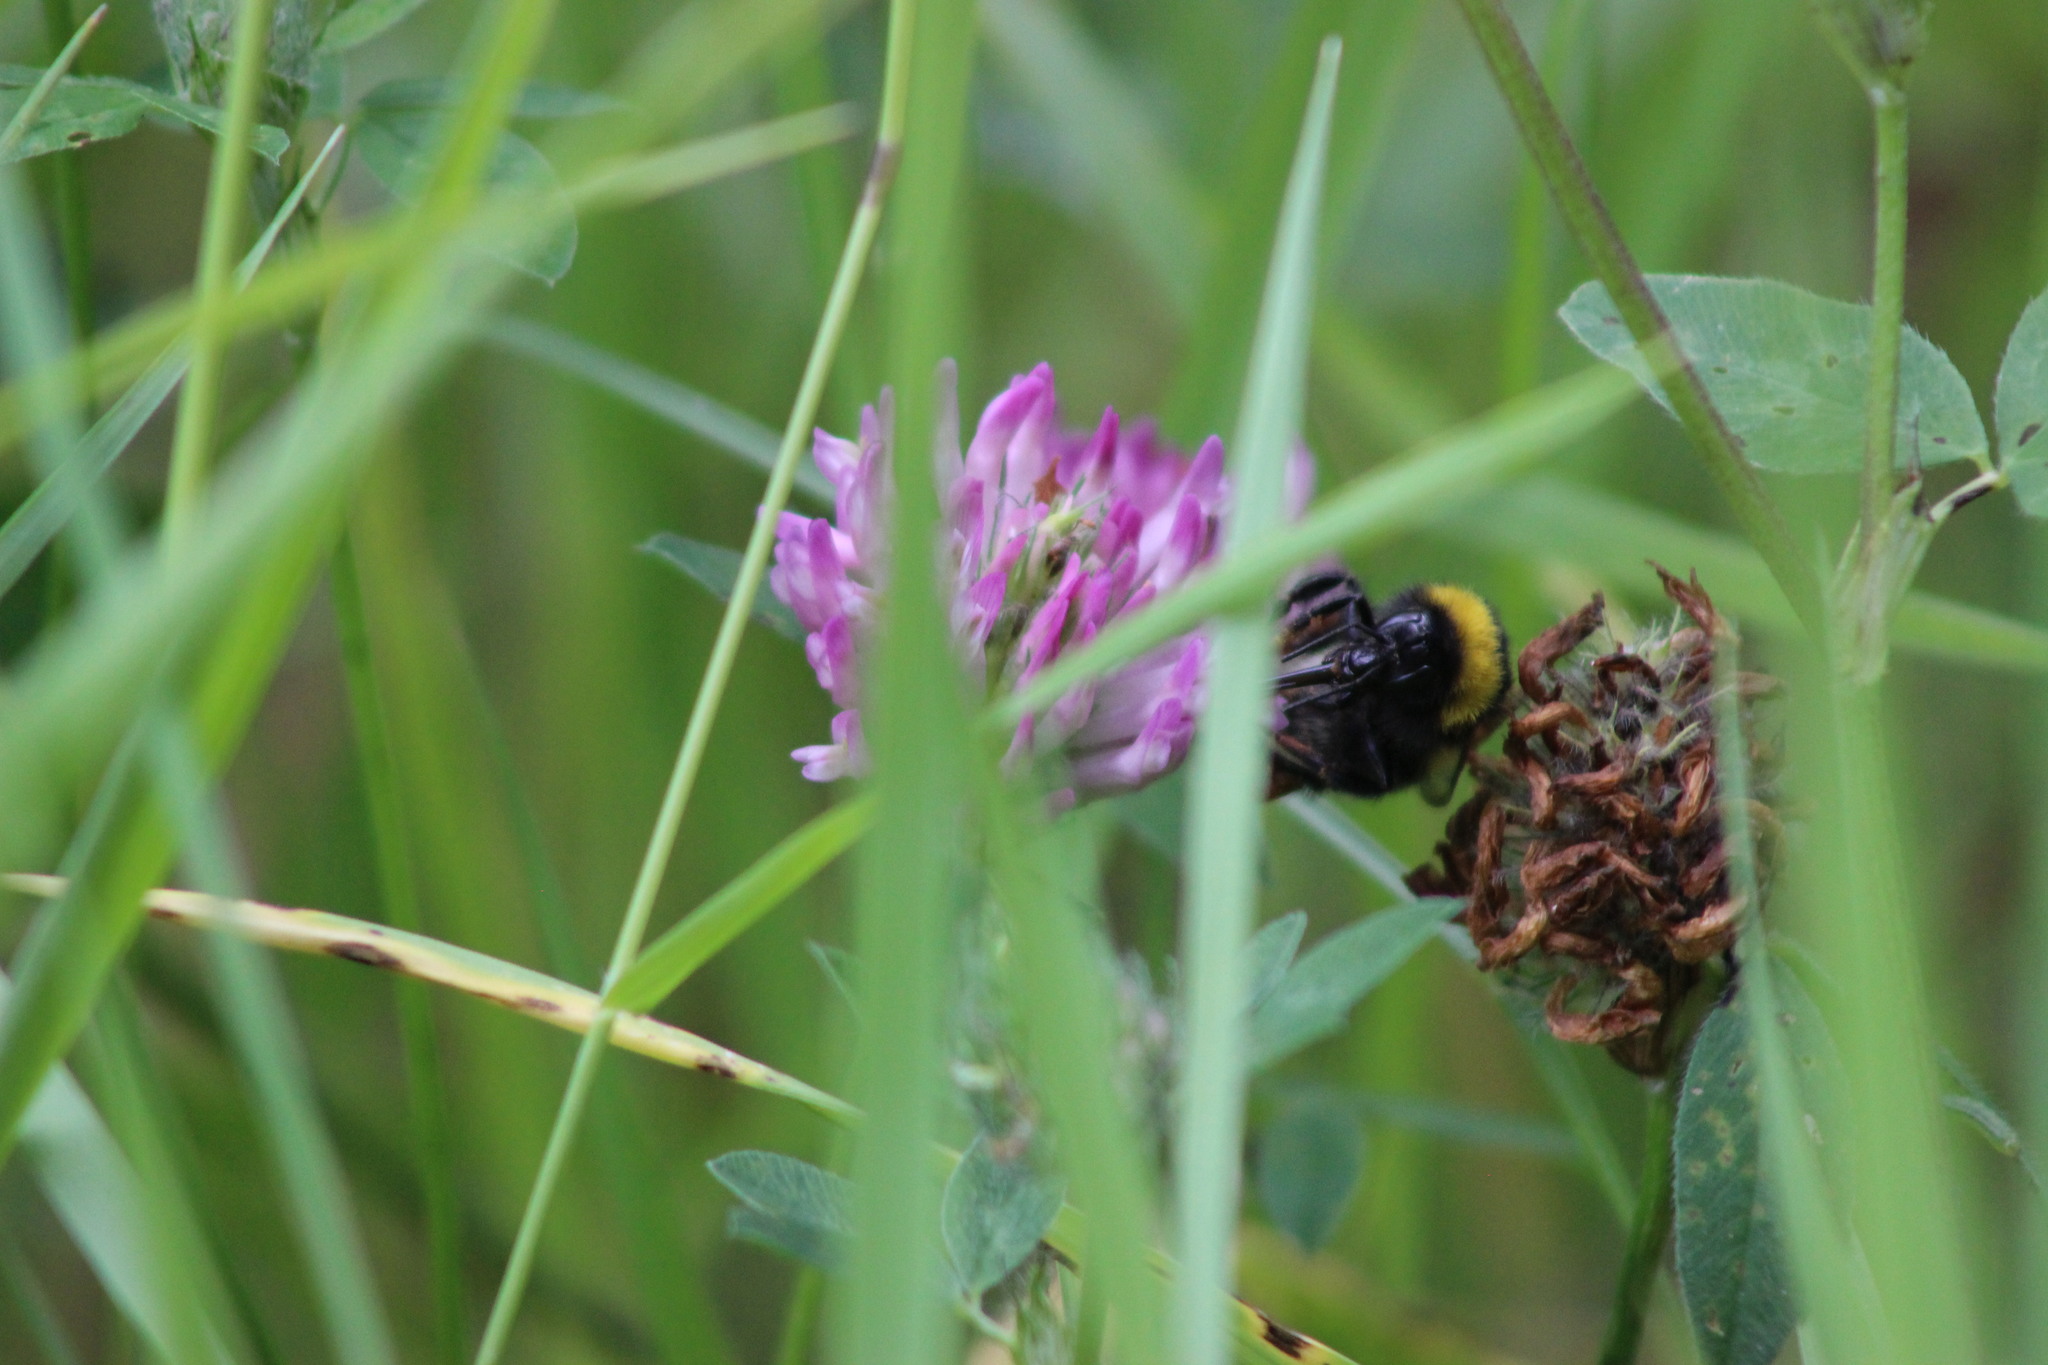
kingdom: Animalia
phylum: Arthropoda
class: Insecta
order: Hymenoptera
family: Apidae
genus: Bombus
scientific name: Bombus hortorum
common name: Garden bumblebee
